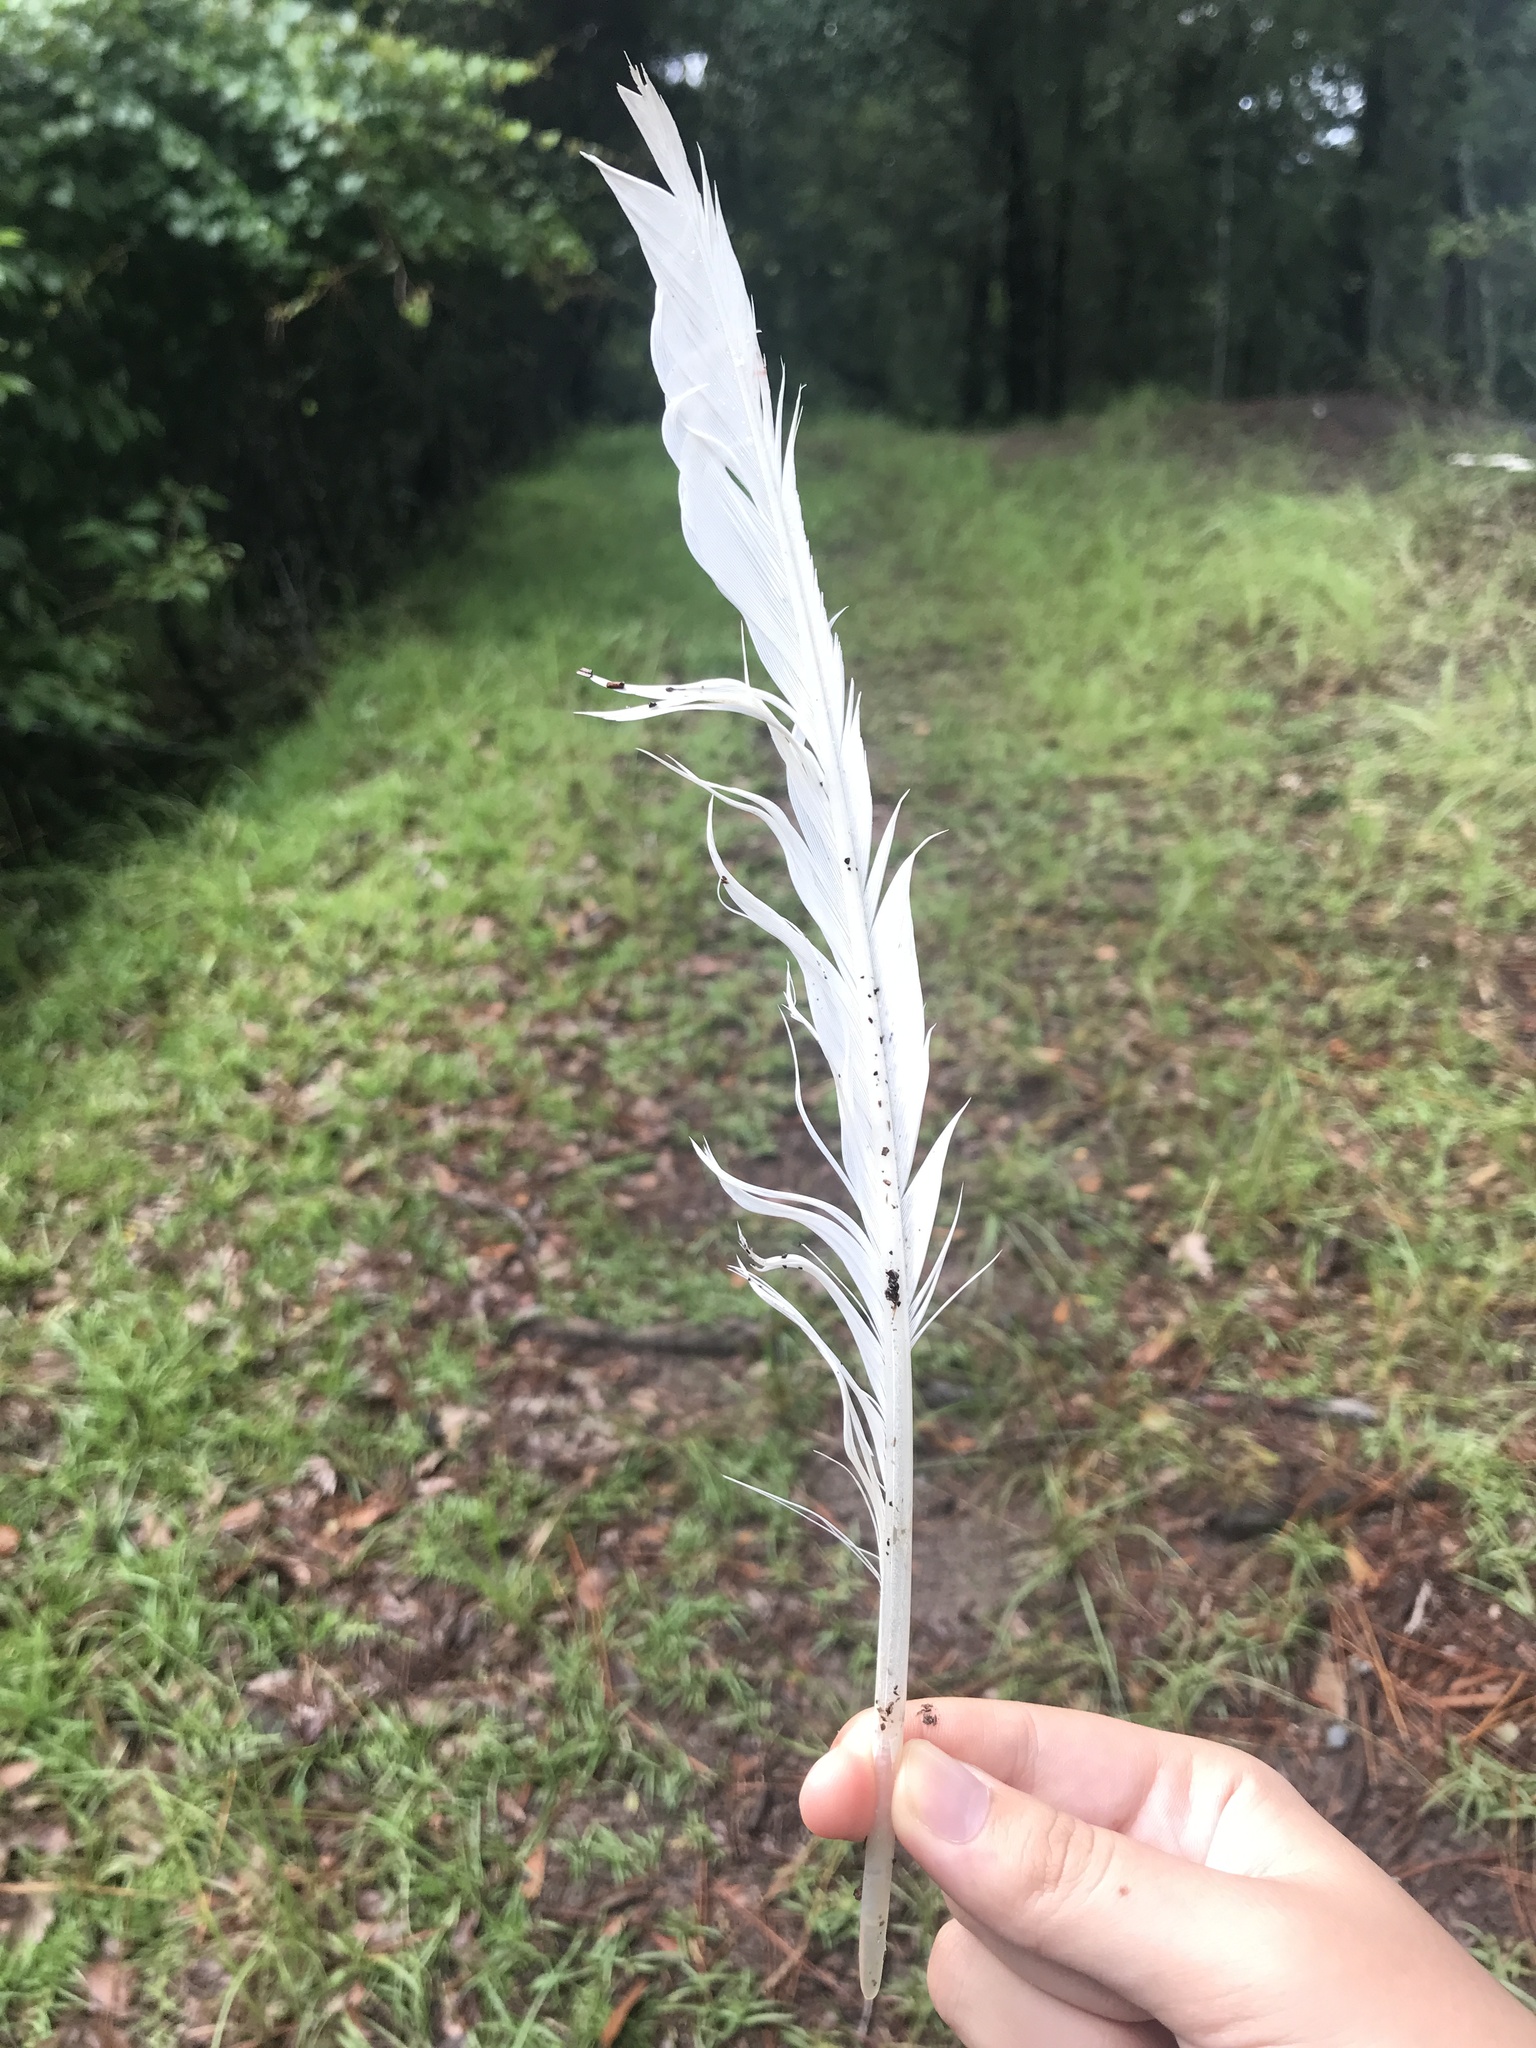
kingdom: Animalia
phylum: Chordata
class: Aves
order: Pelecaniformes
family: Ardeidae
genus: Ardea
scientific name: Ardea alba
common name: Great egret
